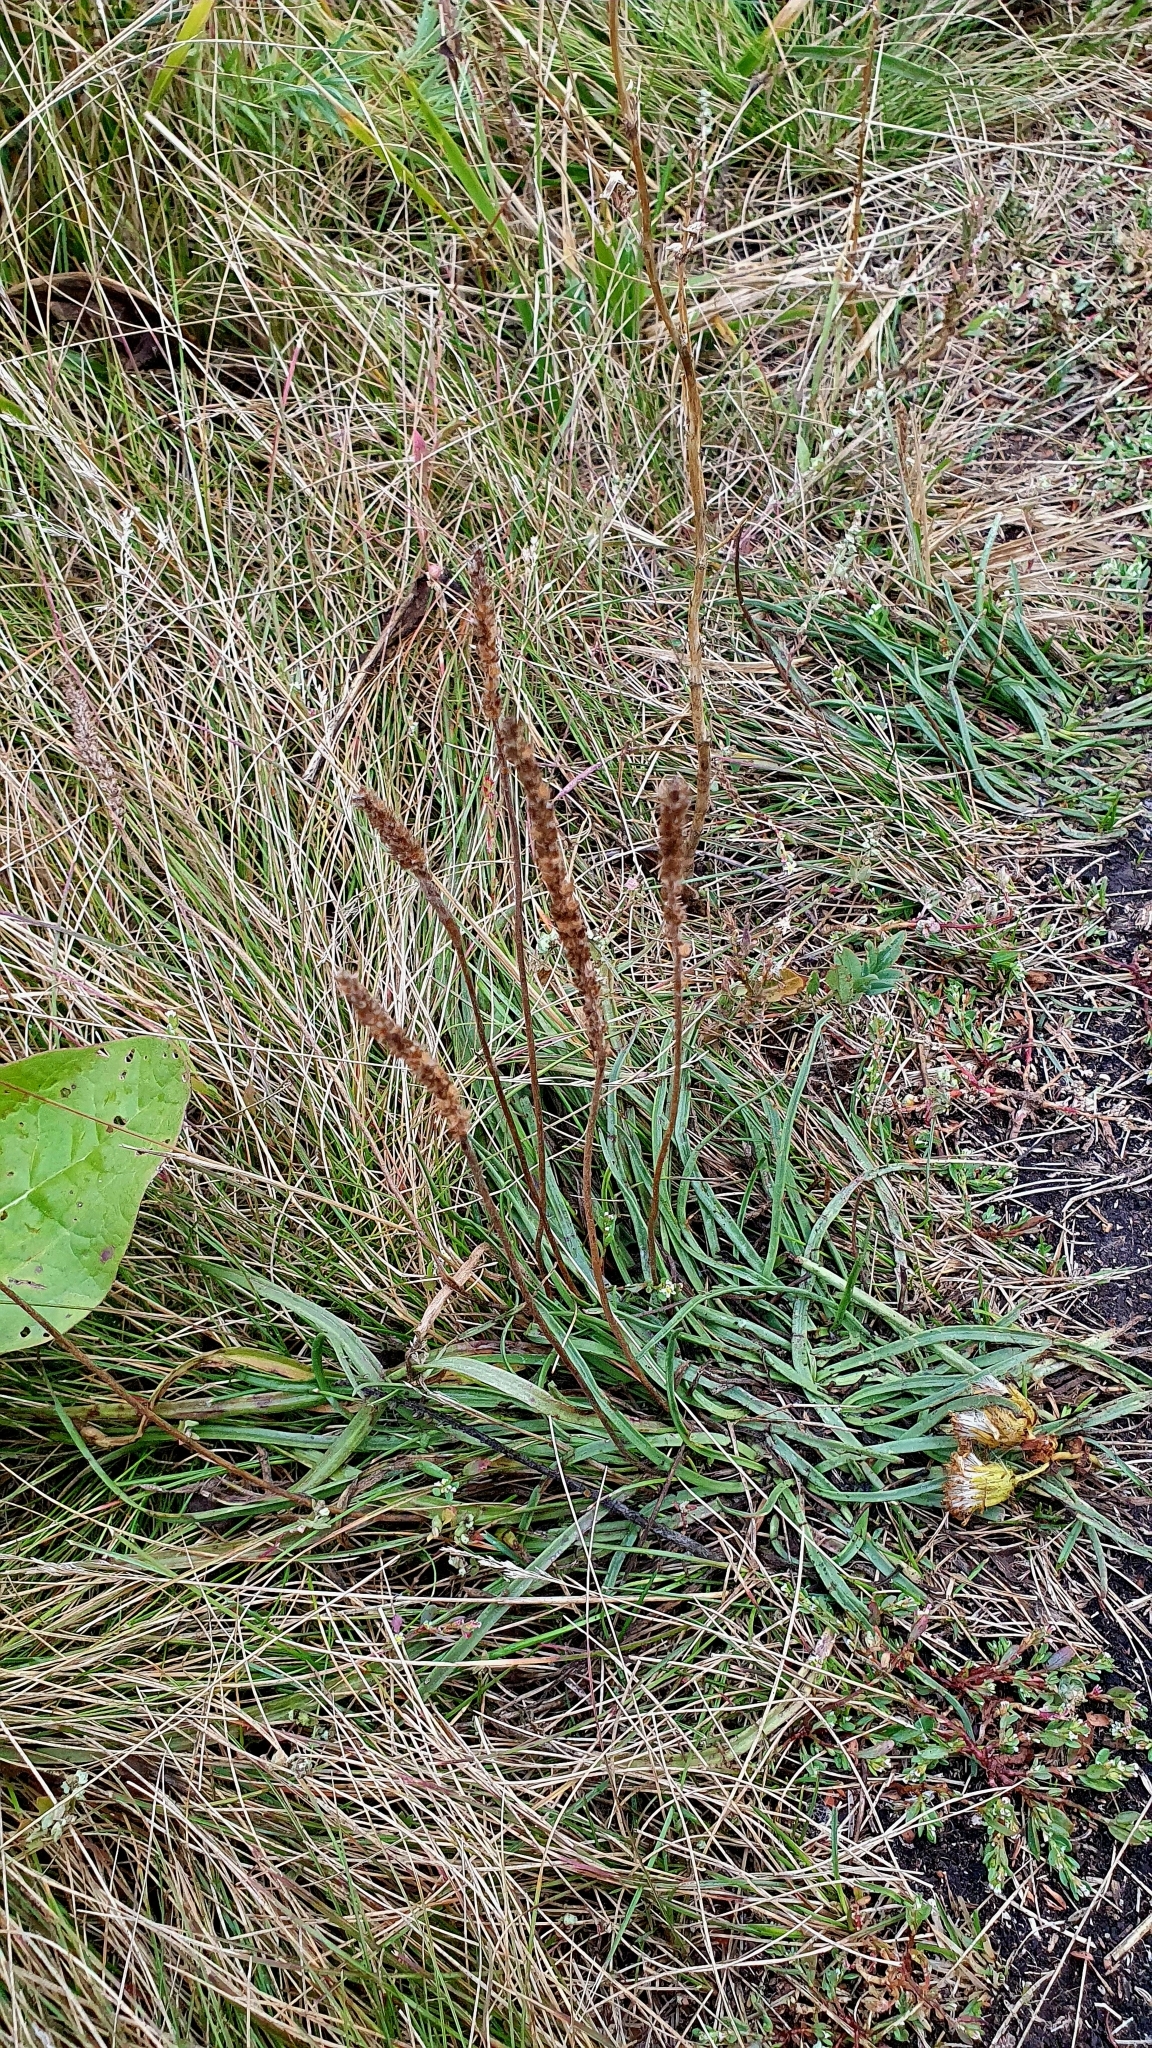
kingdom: Plantae
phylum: Tracheophyta
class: Magnoliopsida
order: Lamiales
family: Plantaginaceae
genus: Plantago
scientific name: Plantago salsa
